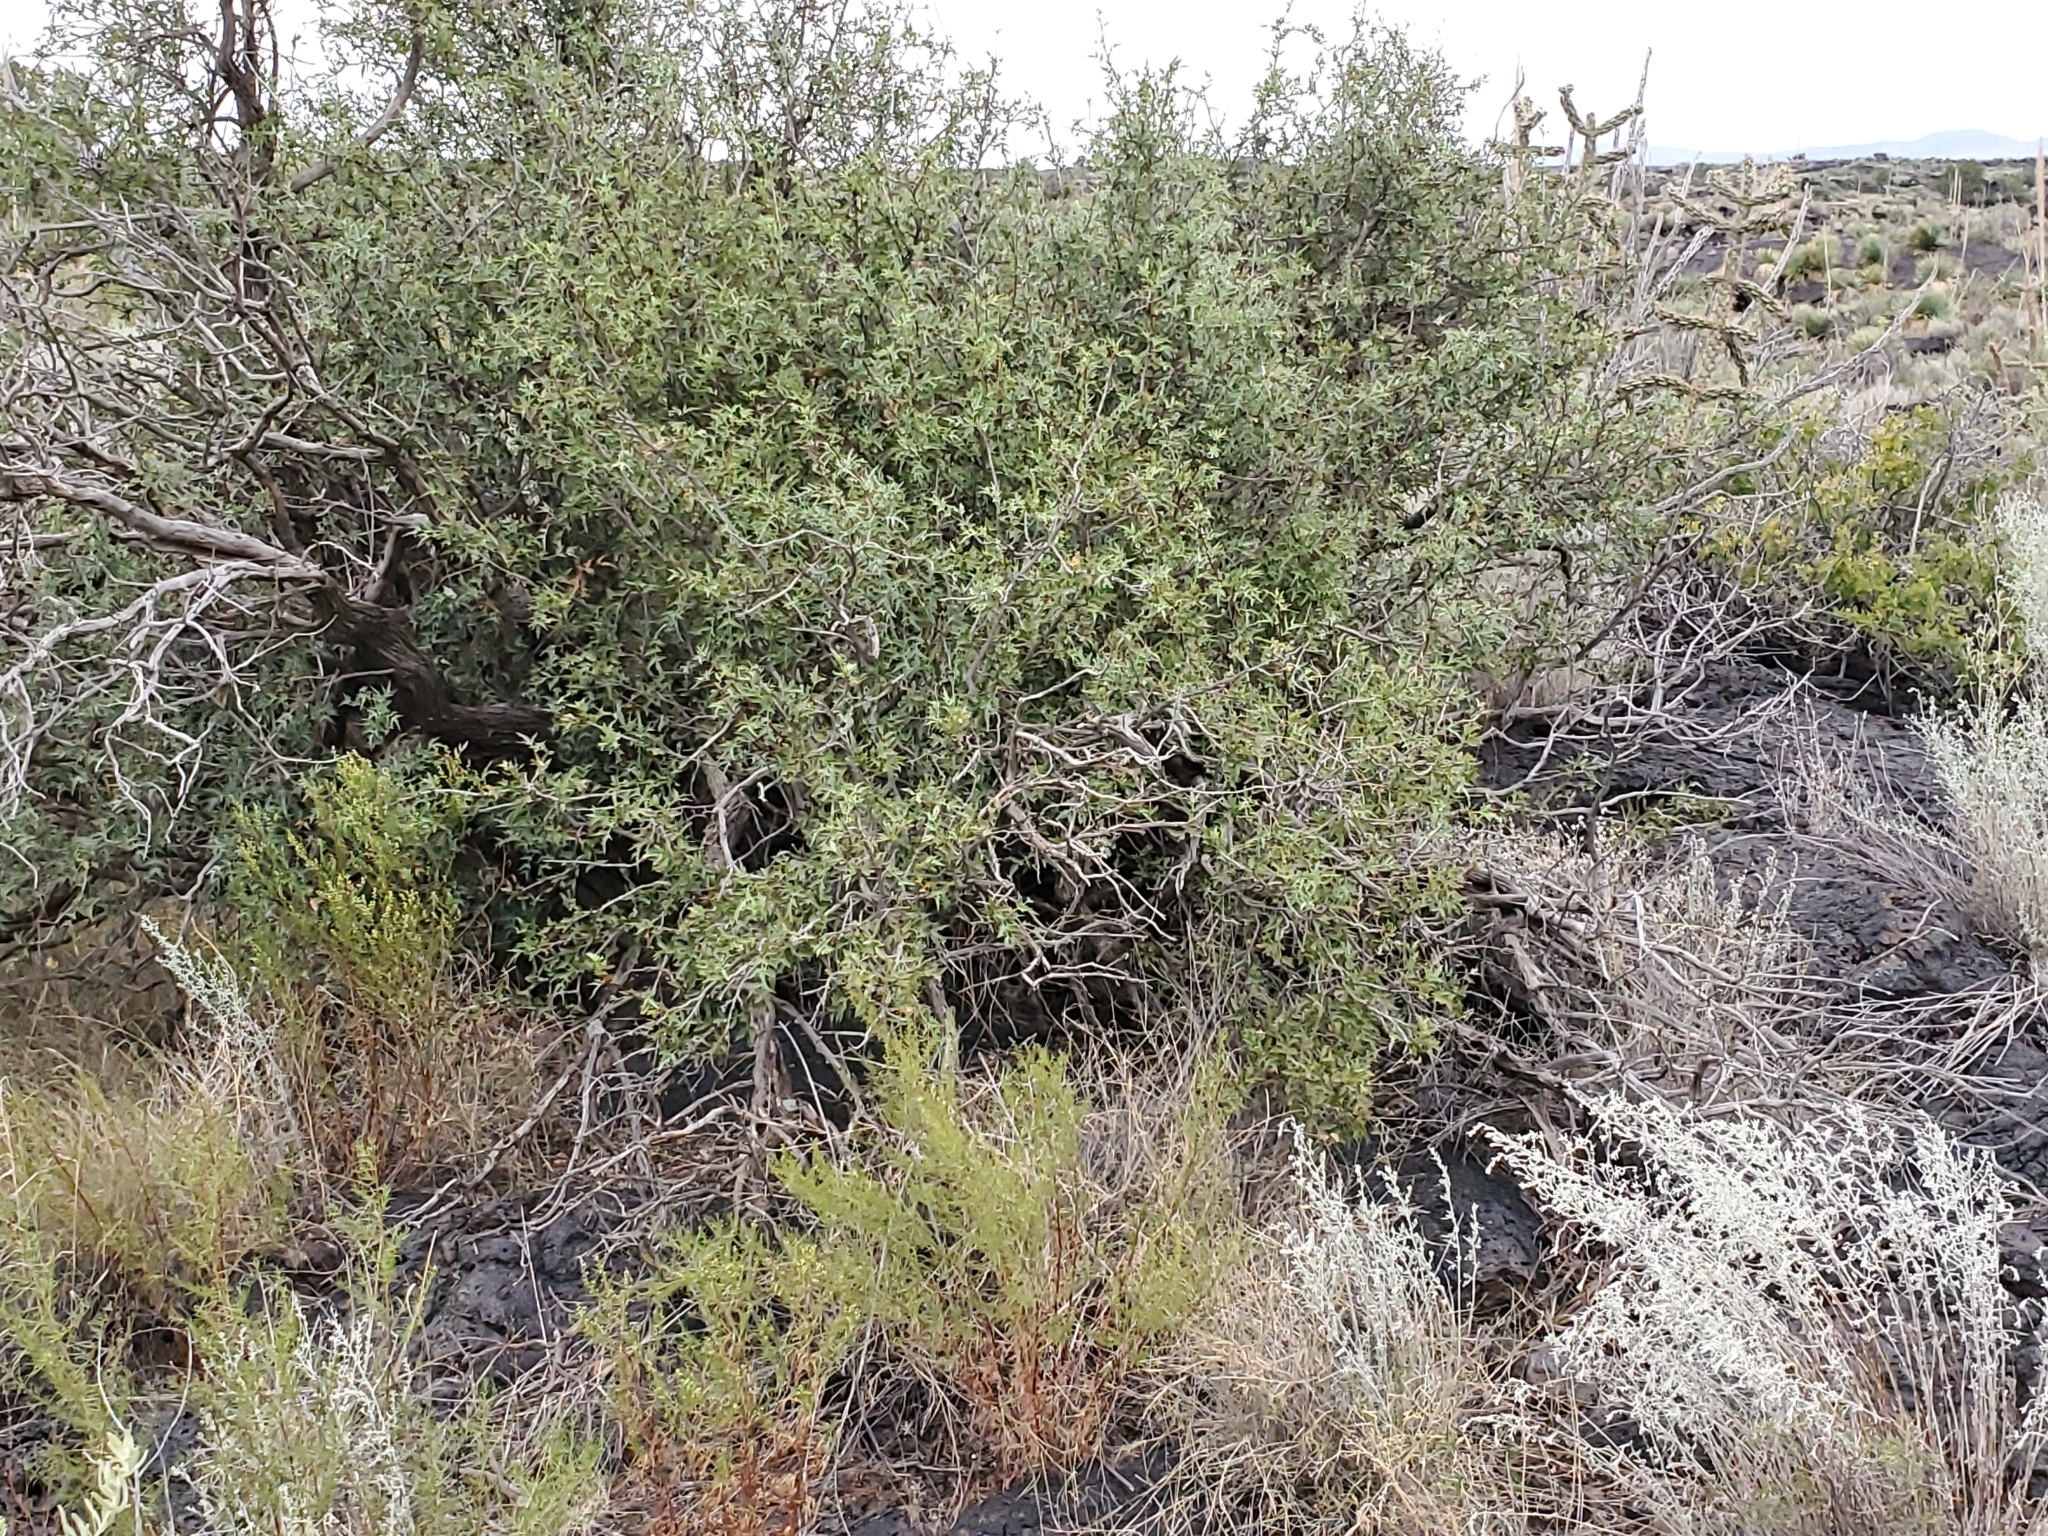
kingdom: Plantae
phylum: Tracheophyta
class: Magnoliopsida
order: Ranunculales
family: Berberidaceae
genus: Alloberberis
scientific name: Alloberberis haematocarpa
